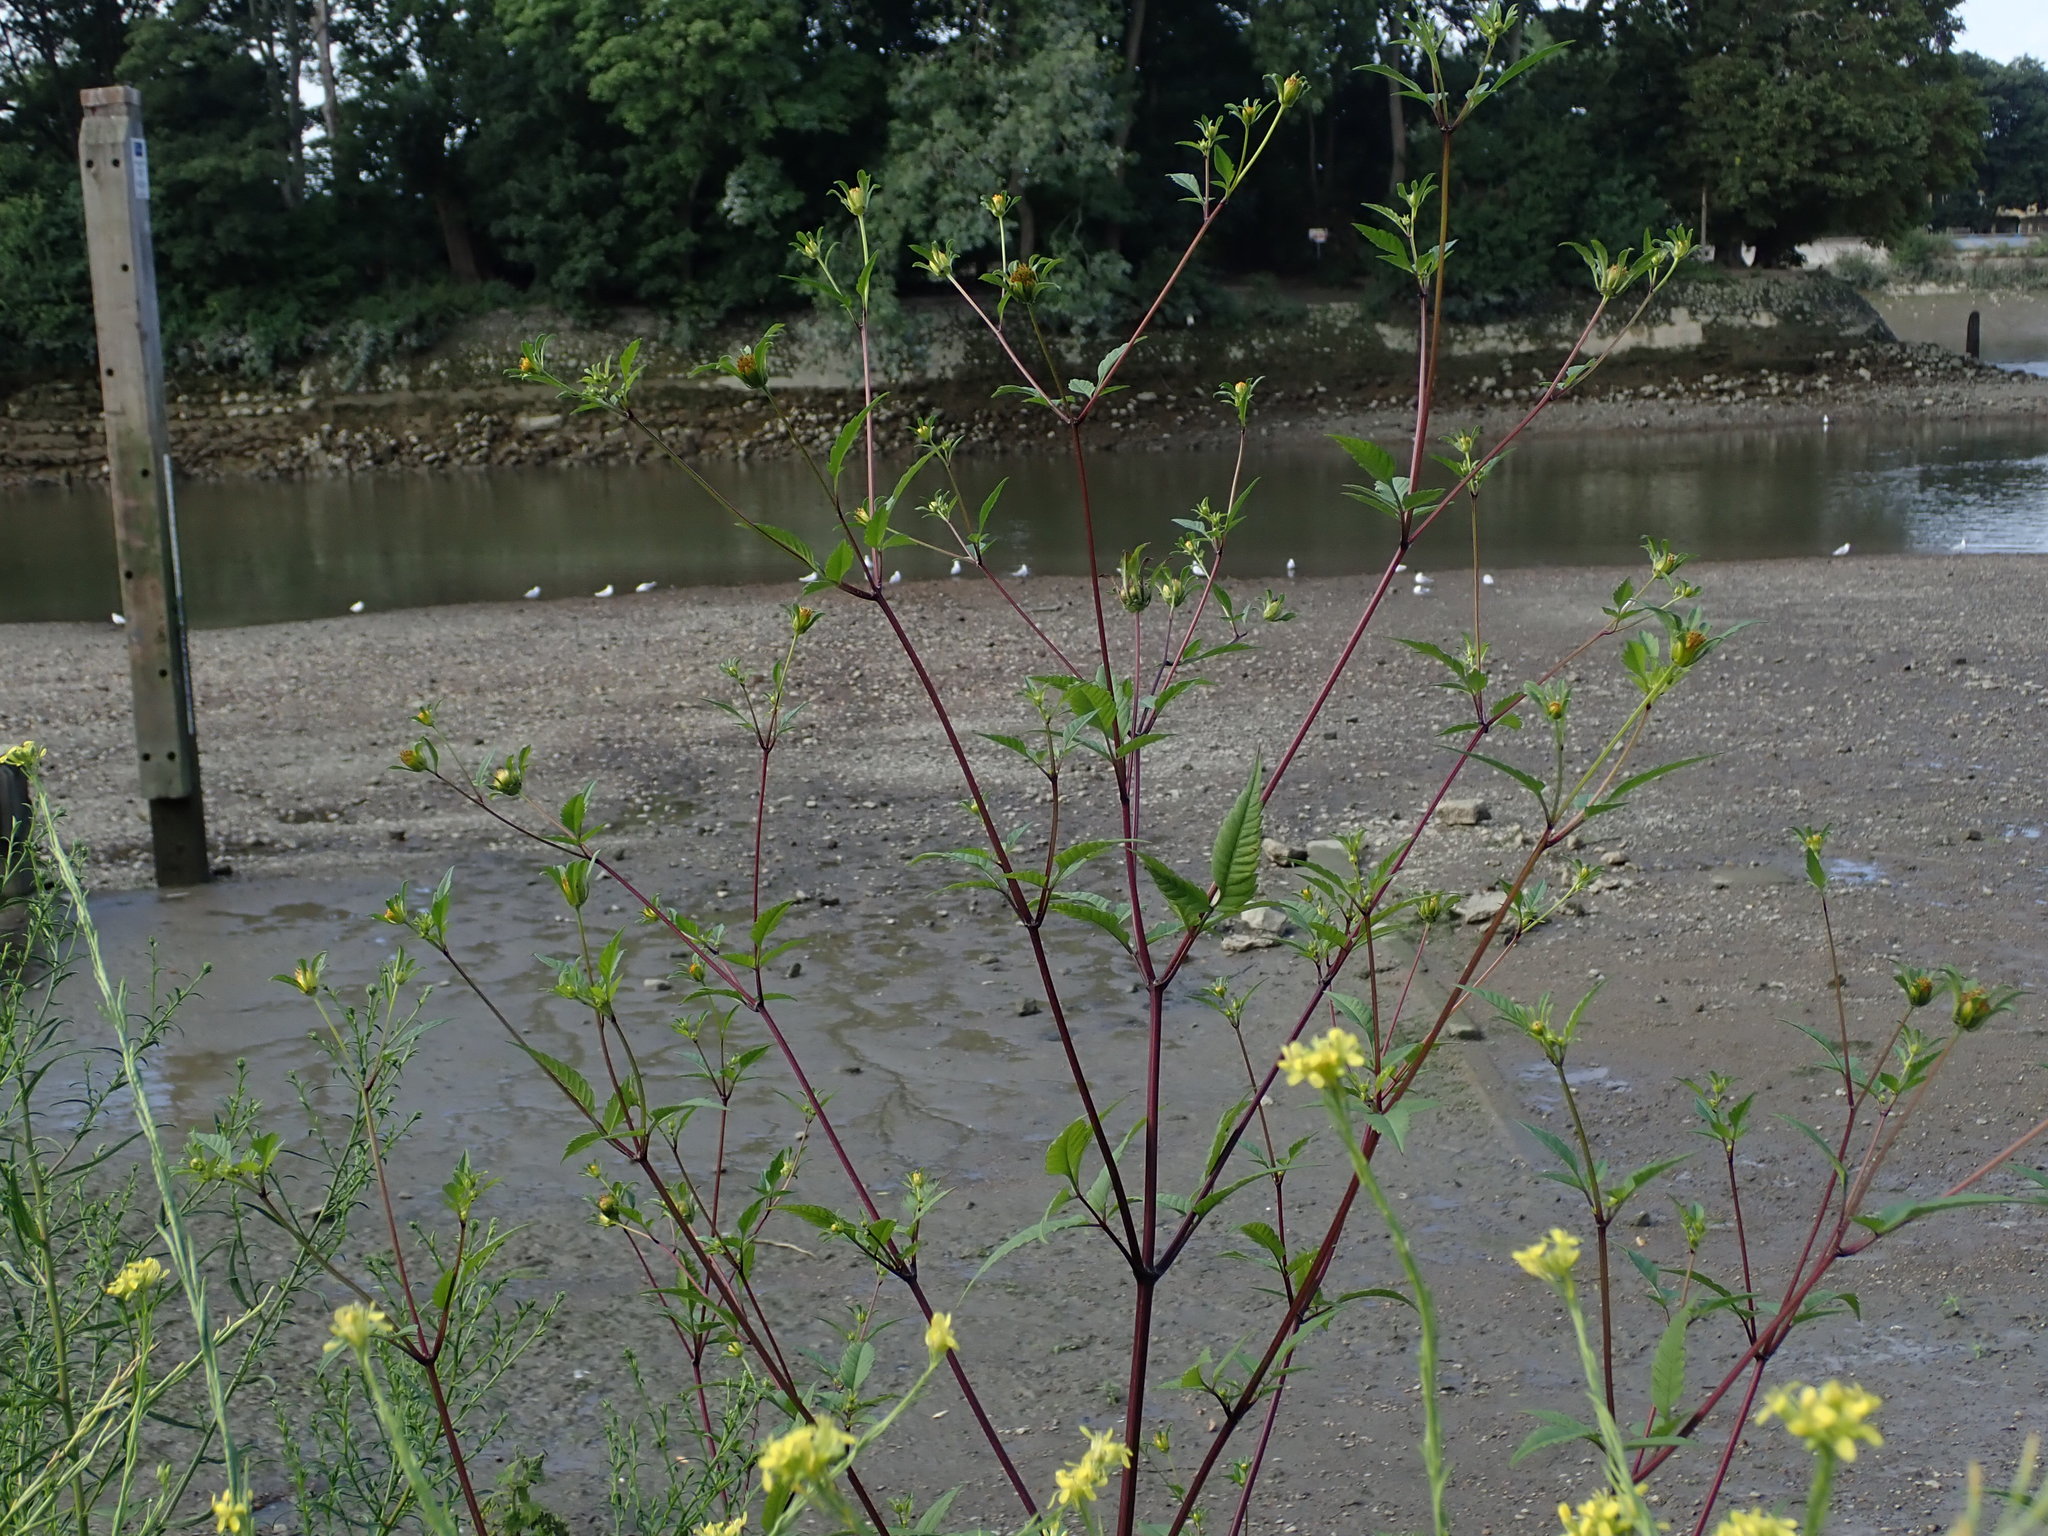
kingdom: Plantae
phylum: Tracheophyta
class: Magnoliopsida
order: Asterales
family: Asteraceae
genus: Bidens
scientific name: Bidens frondosa
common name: Beggarticks
